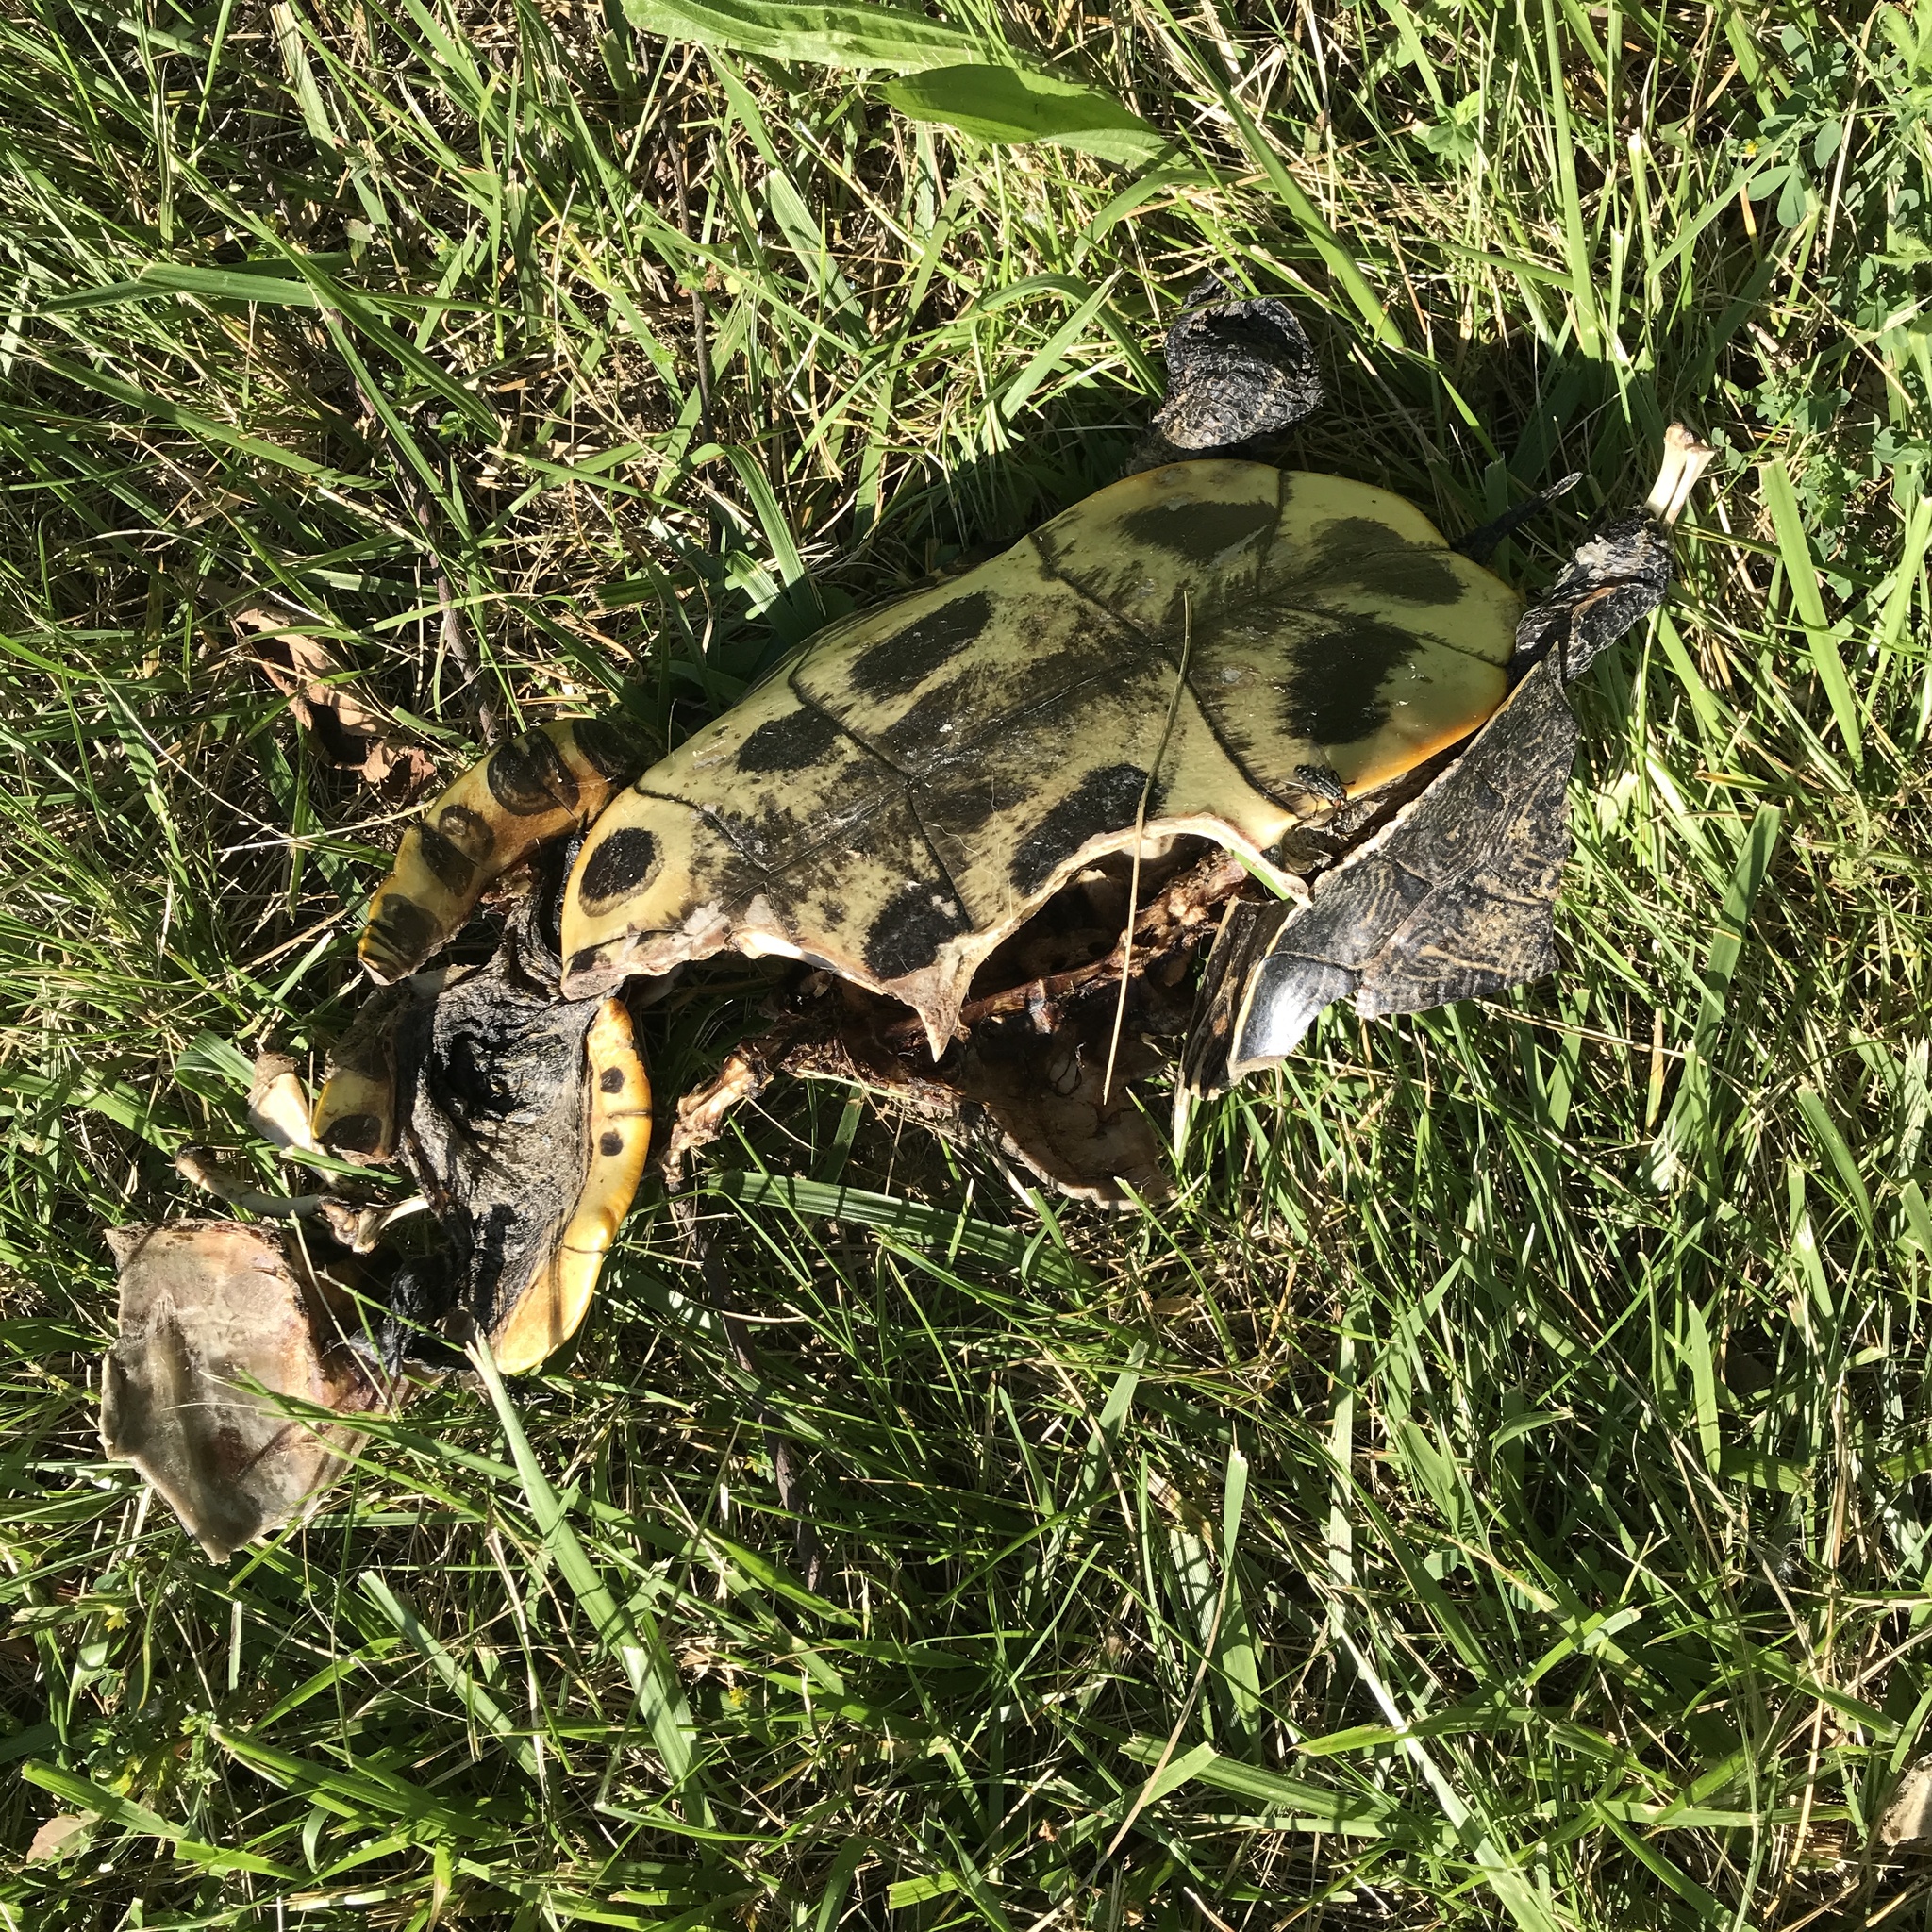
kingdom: Animalia
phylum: Chordata
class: Testudines
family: Emydidae
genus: Trachemys
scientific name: Trachemys scripta
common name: Slider
